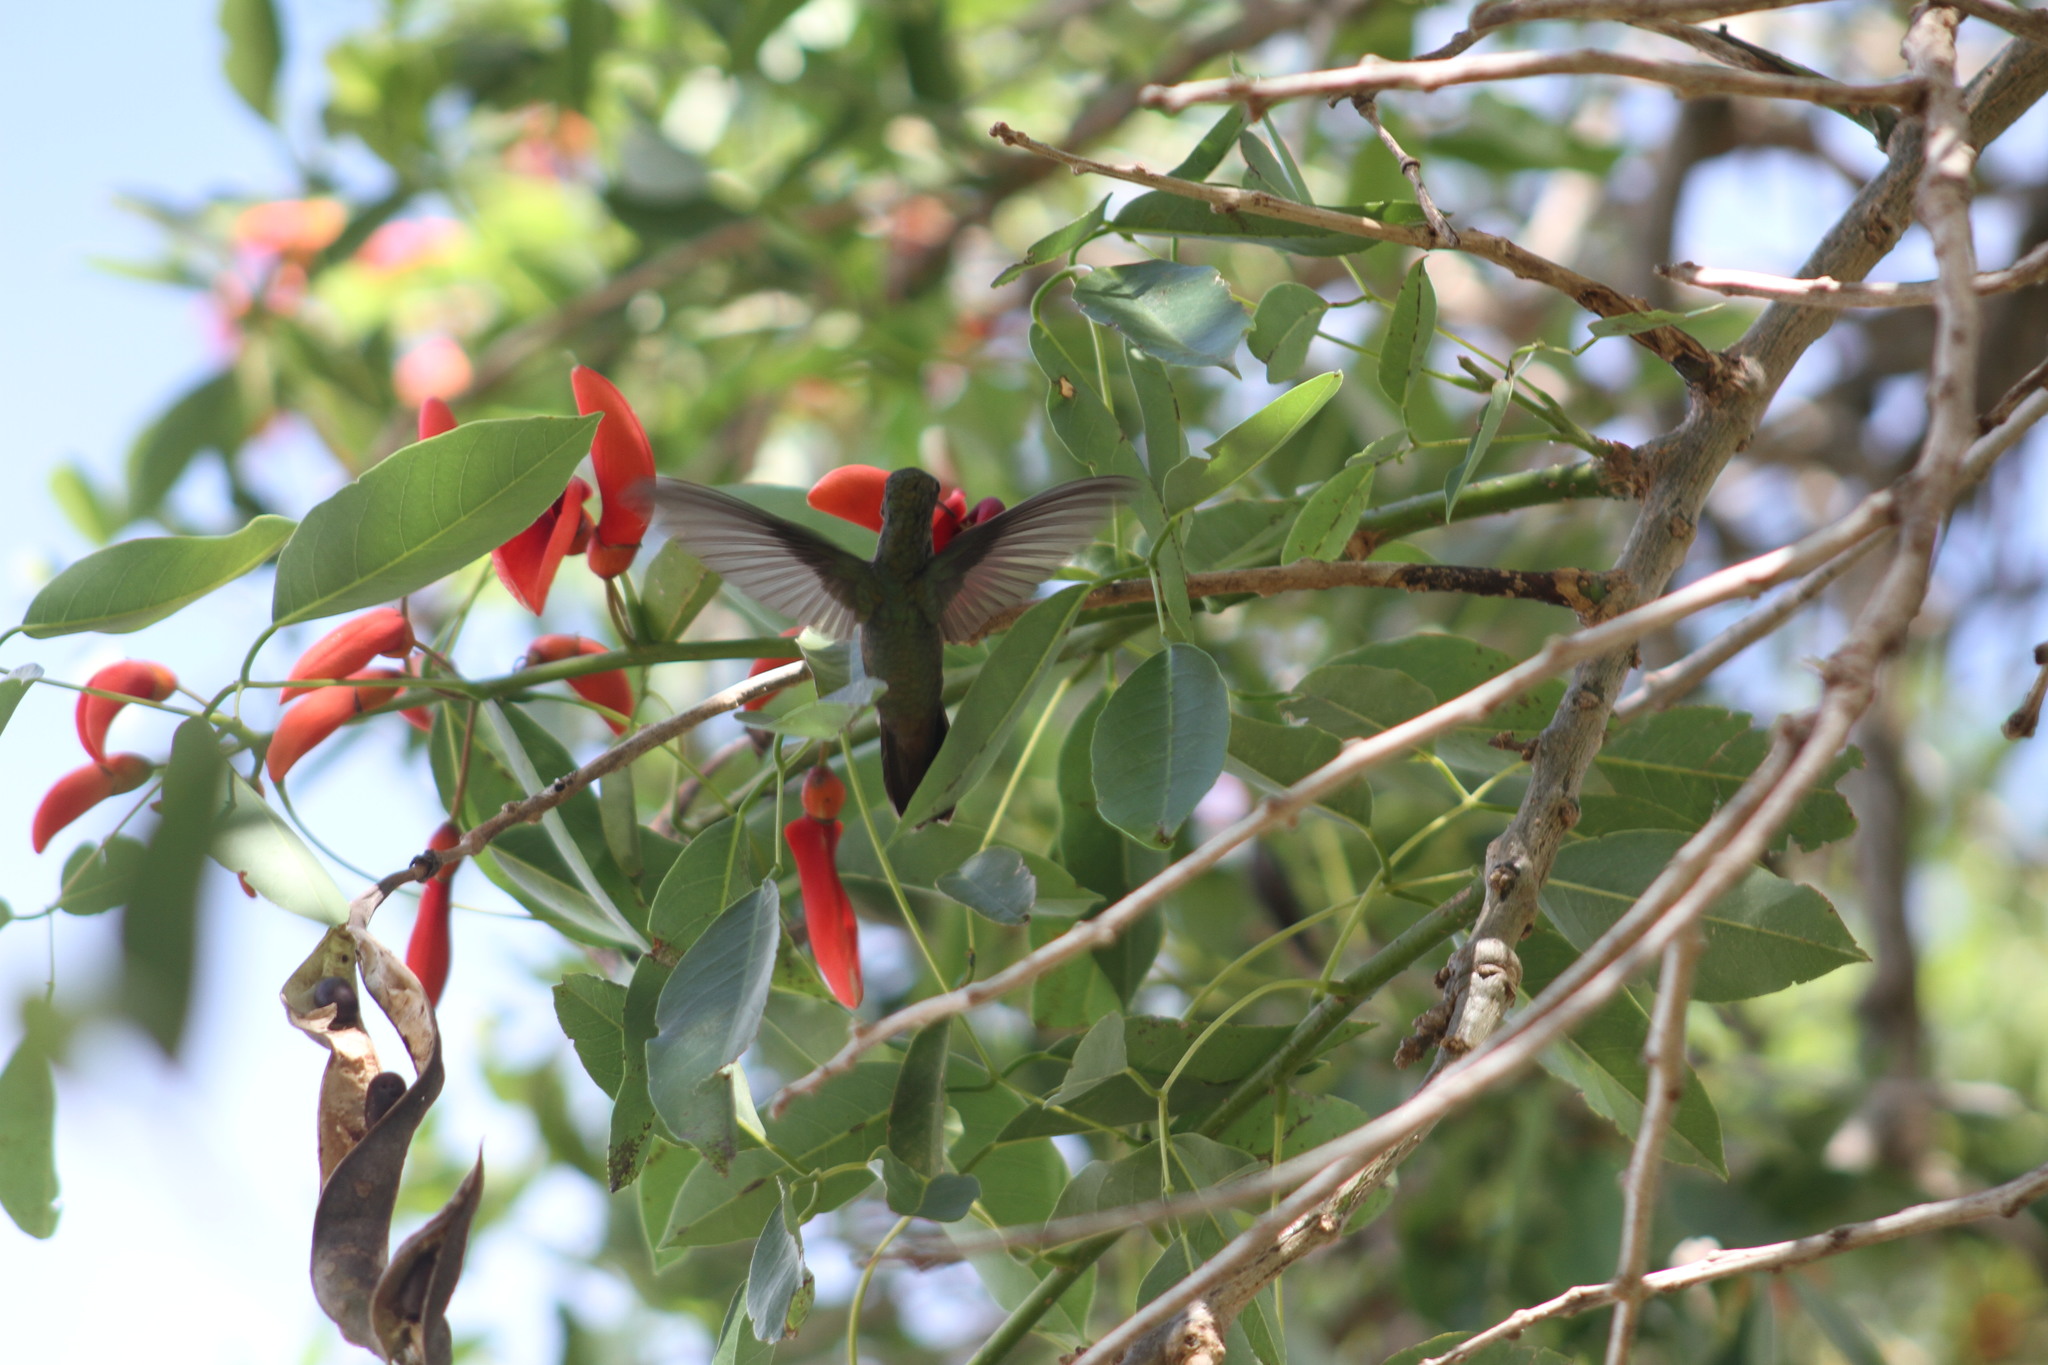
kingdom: Animalia
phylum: Chordata
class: Aves
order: Apodiformes
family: Trochilidae
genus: Chlorostilbon
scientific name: Chlorostilbon lucidus
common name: Glittering-bellied emerald
